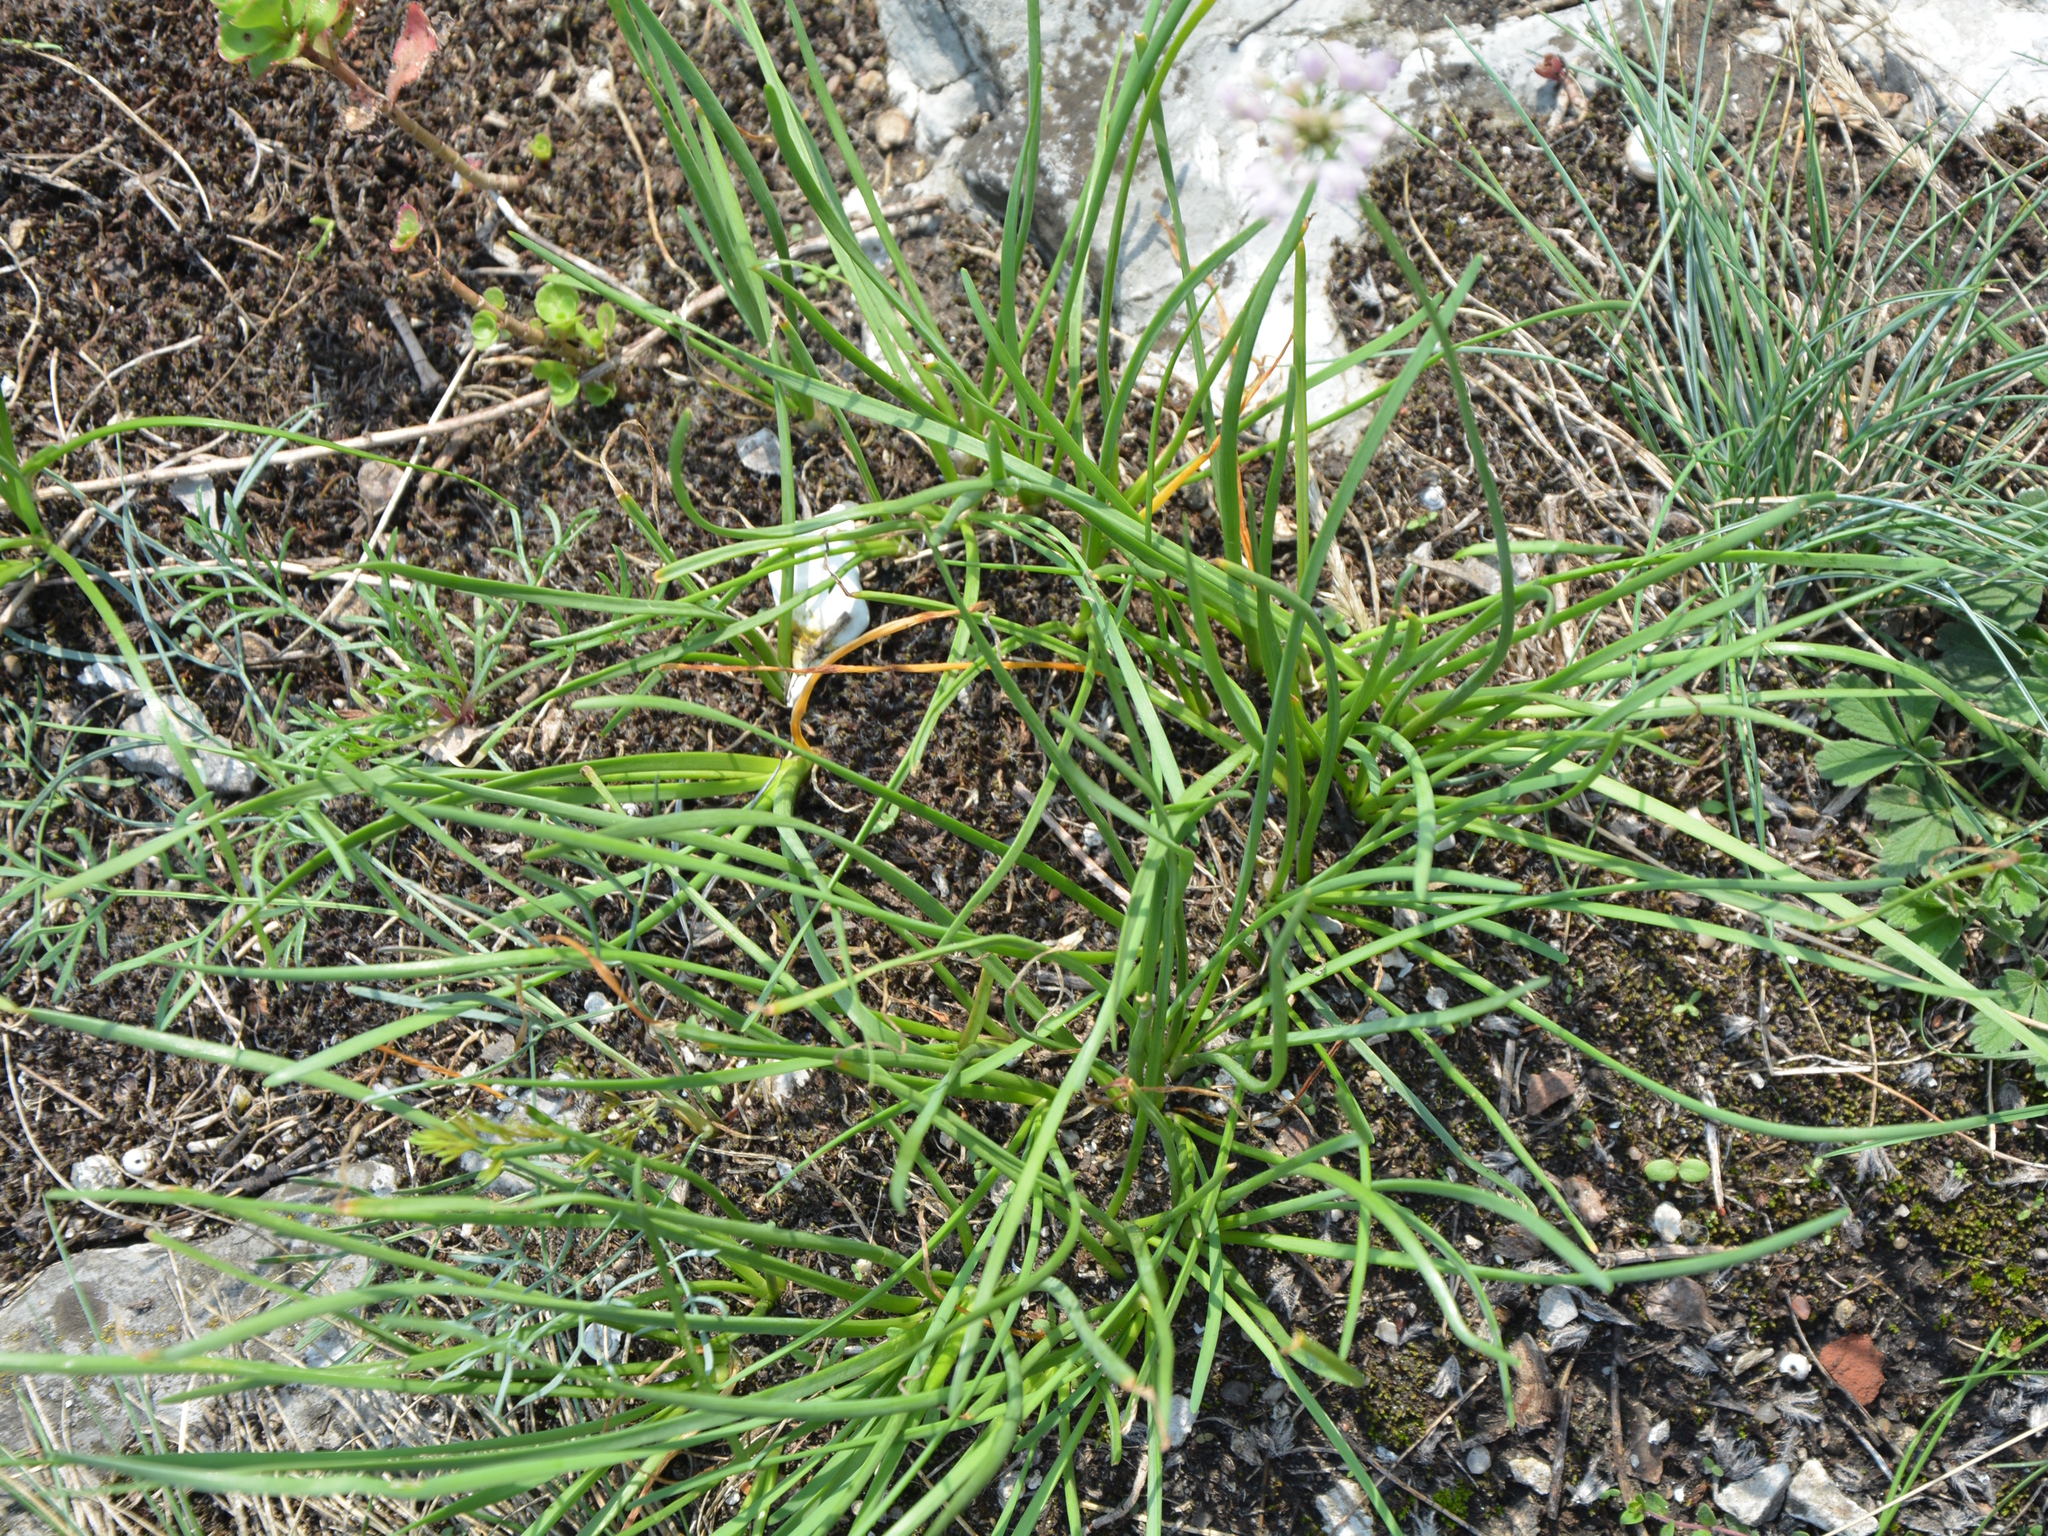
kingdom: Plantae
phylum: Tracheophyta
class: Liliopsida
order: Asparagales
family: Amaryllidaceae
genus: Allium
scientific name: Allium lusitanicum
